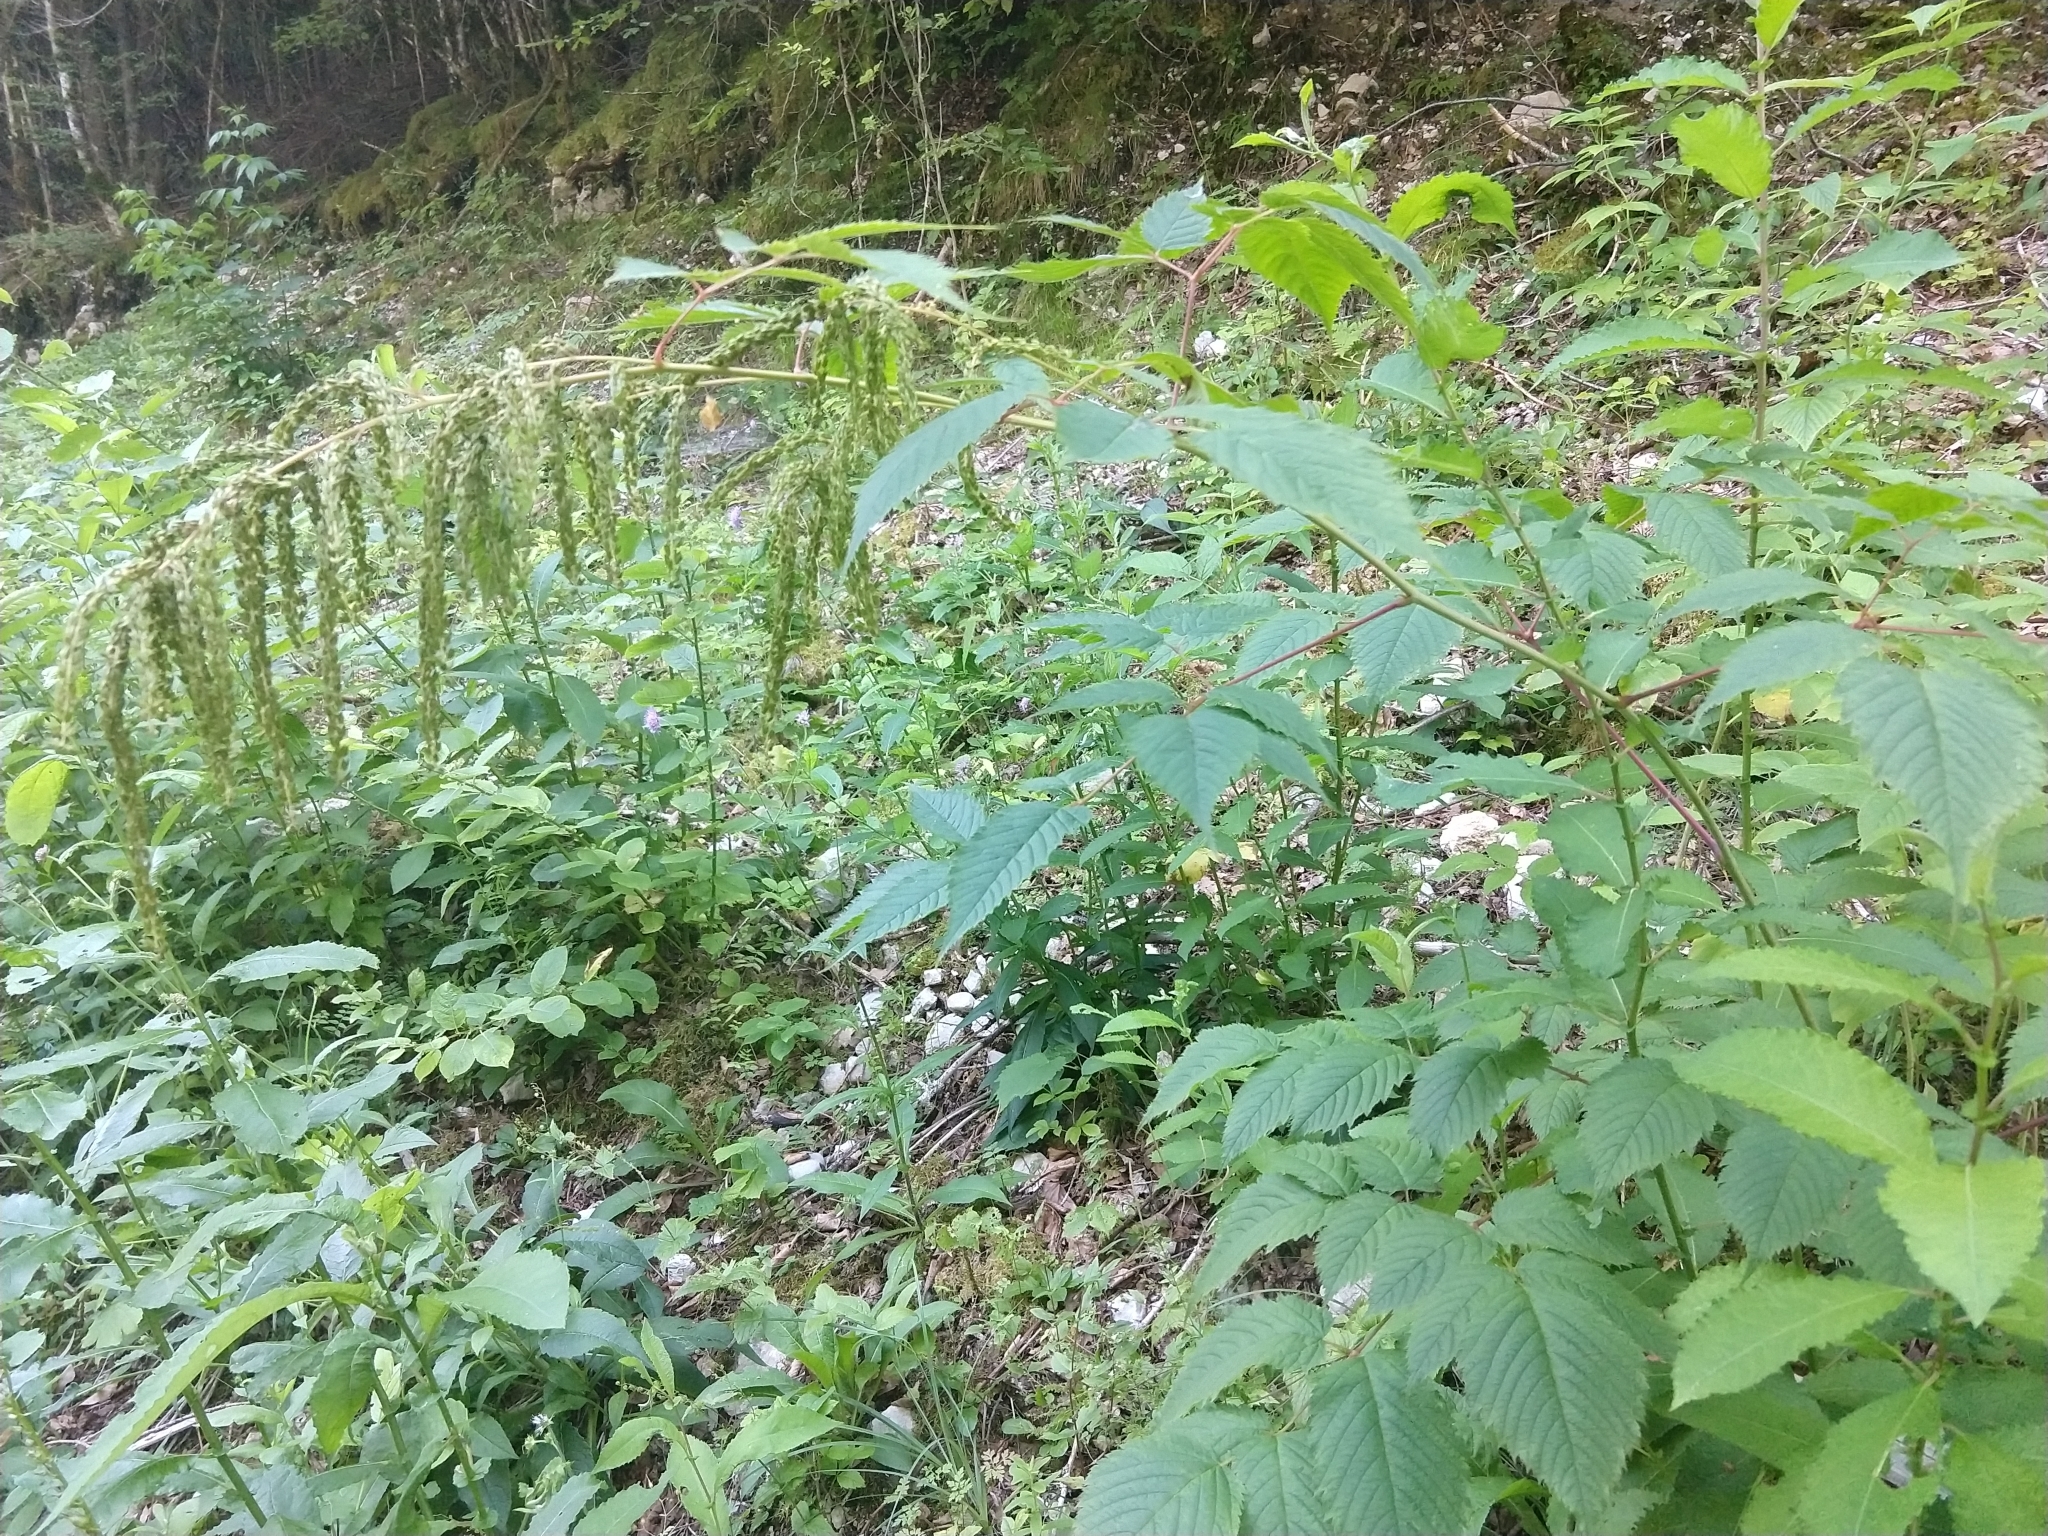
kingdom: Plantae
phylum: Tracheophyta
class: Magnoliopsida
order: Rosales
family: Rosaceae
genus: Aruncus
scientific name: Aruncus dioicus
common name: Buck's-beard
